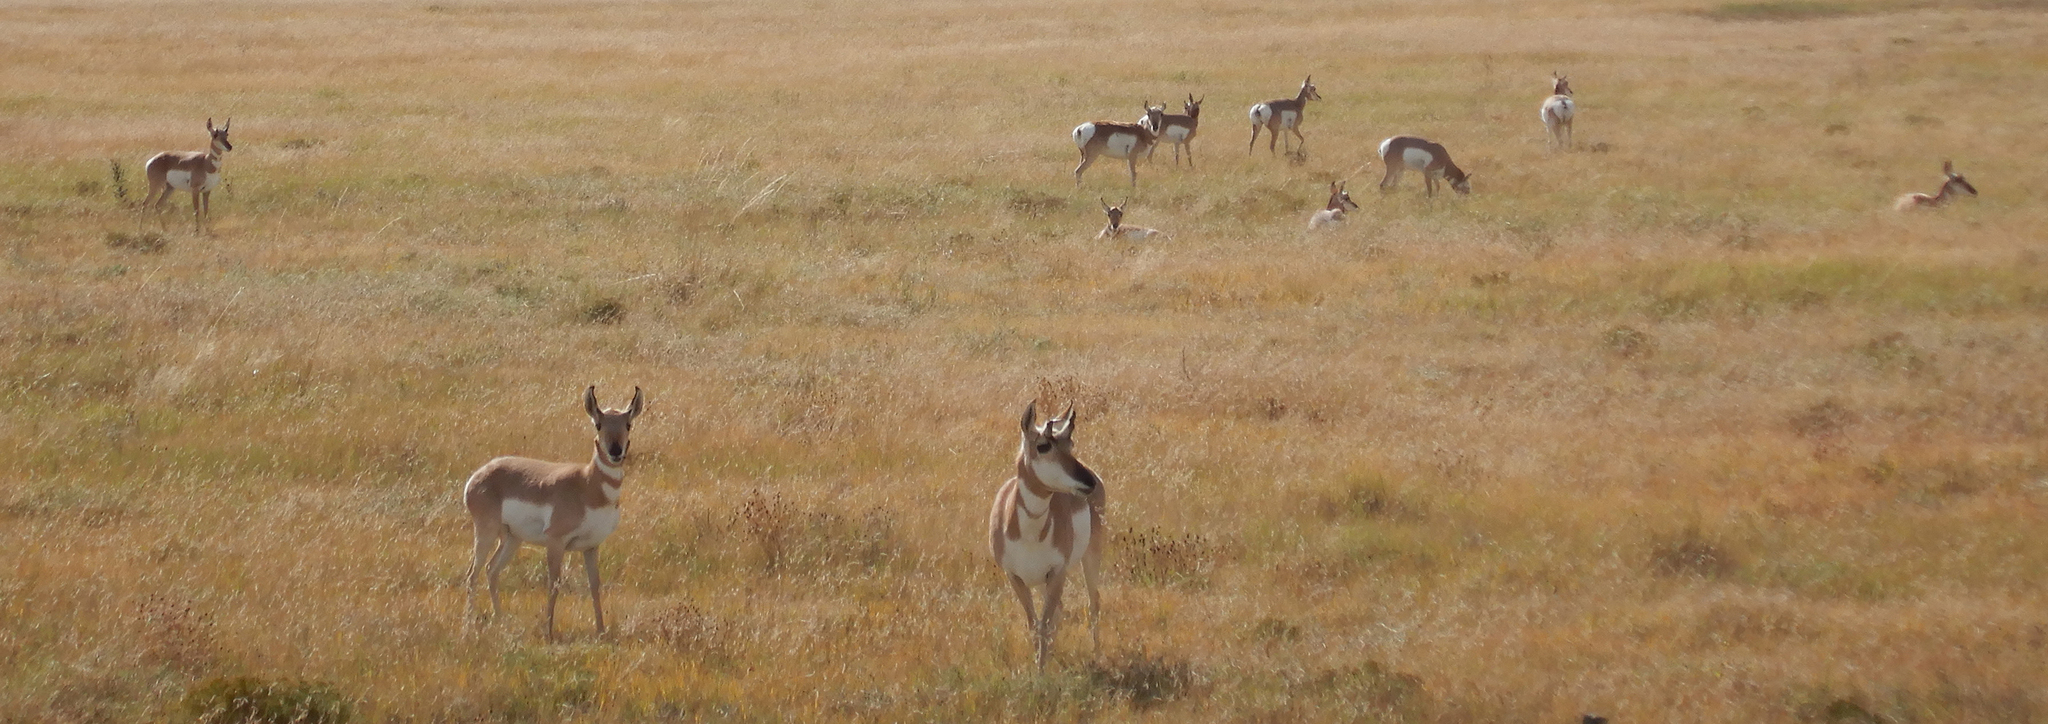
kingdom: Animalia
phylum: Chordata
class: Mammalia
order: Artiodactyla
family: Antilocapridae
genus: Antilocapra
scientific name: Antilocapra americana
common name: Pronghorn
